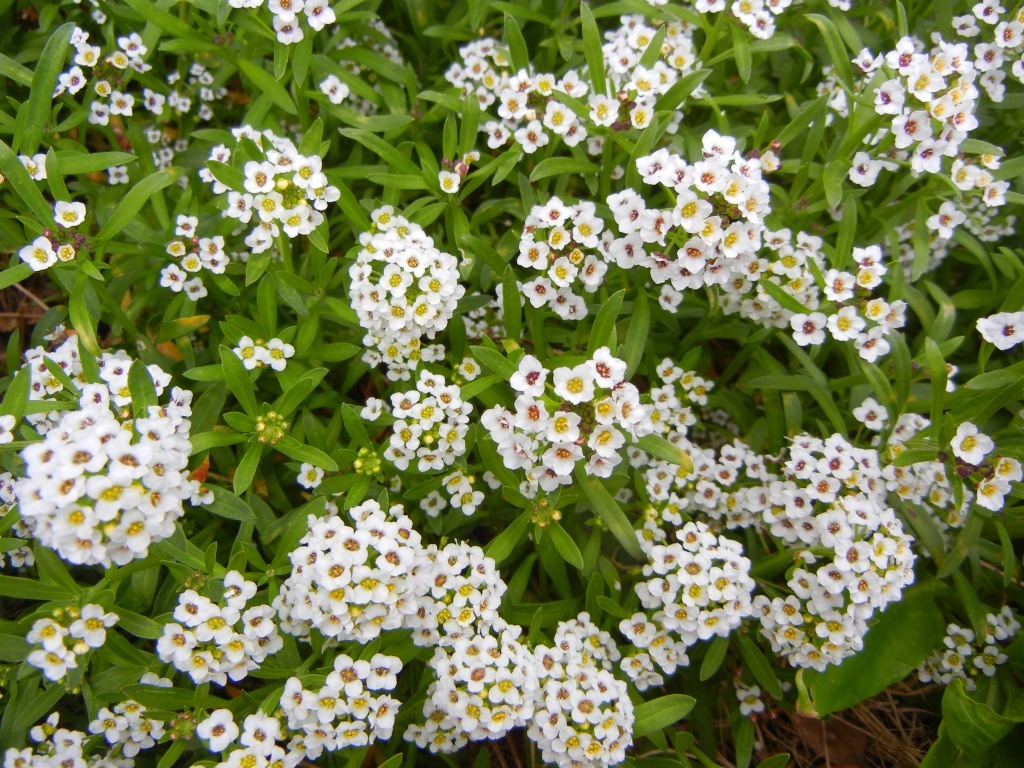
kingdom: Plantae
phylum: Tracheophyta
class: Magnoliopsida
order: Brassicales
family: Brassicaceae
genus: Lobularia
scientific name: Lobularia maritima
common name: Sweet alison
